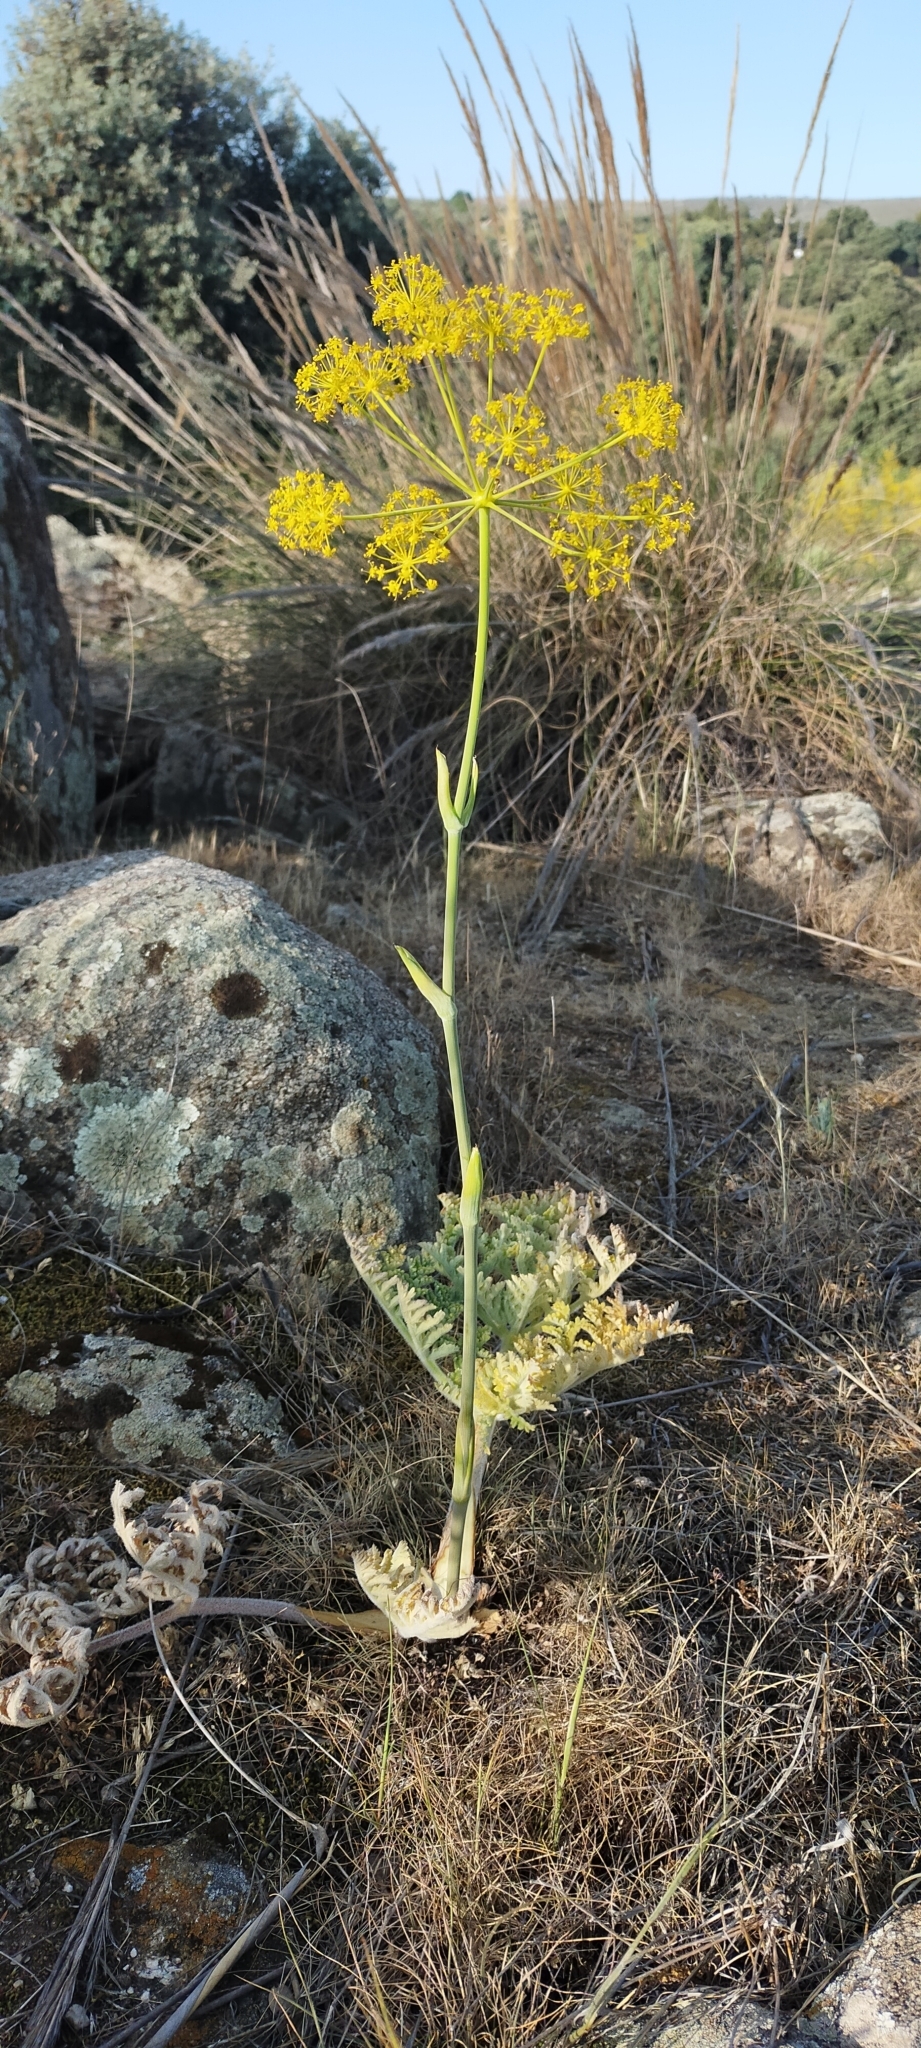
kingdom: Plantae
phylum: Tracheophyta
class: Magnoliopsida
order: Apiales
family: Apiaceae
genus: Thapsia
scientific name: Thapsia villosa
